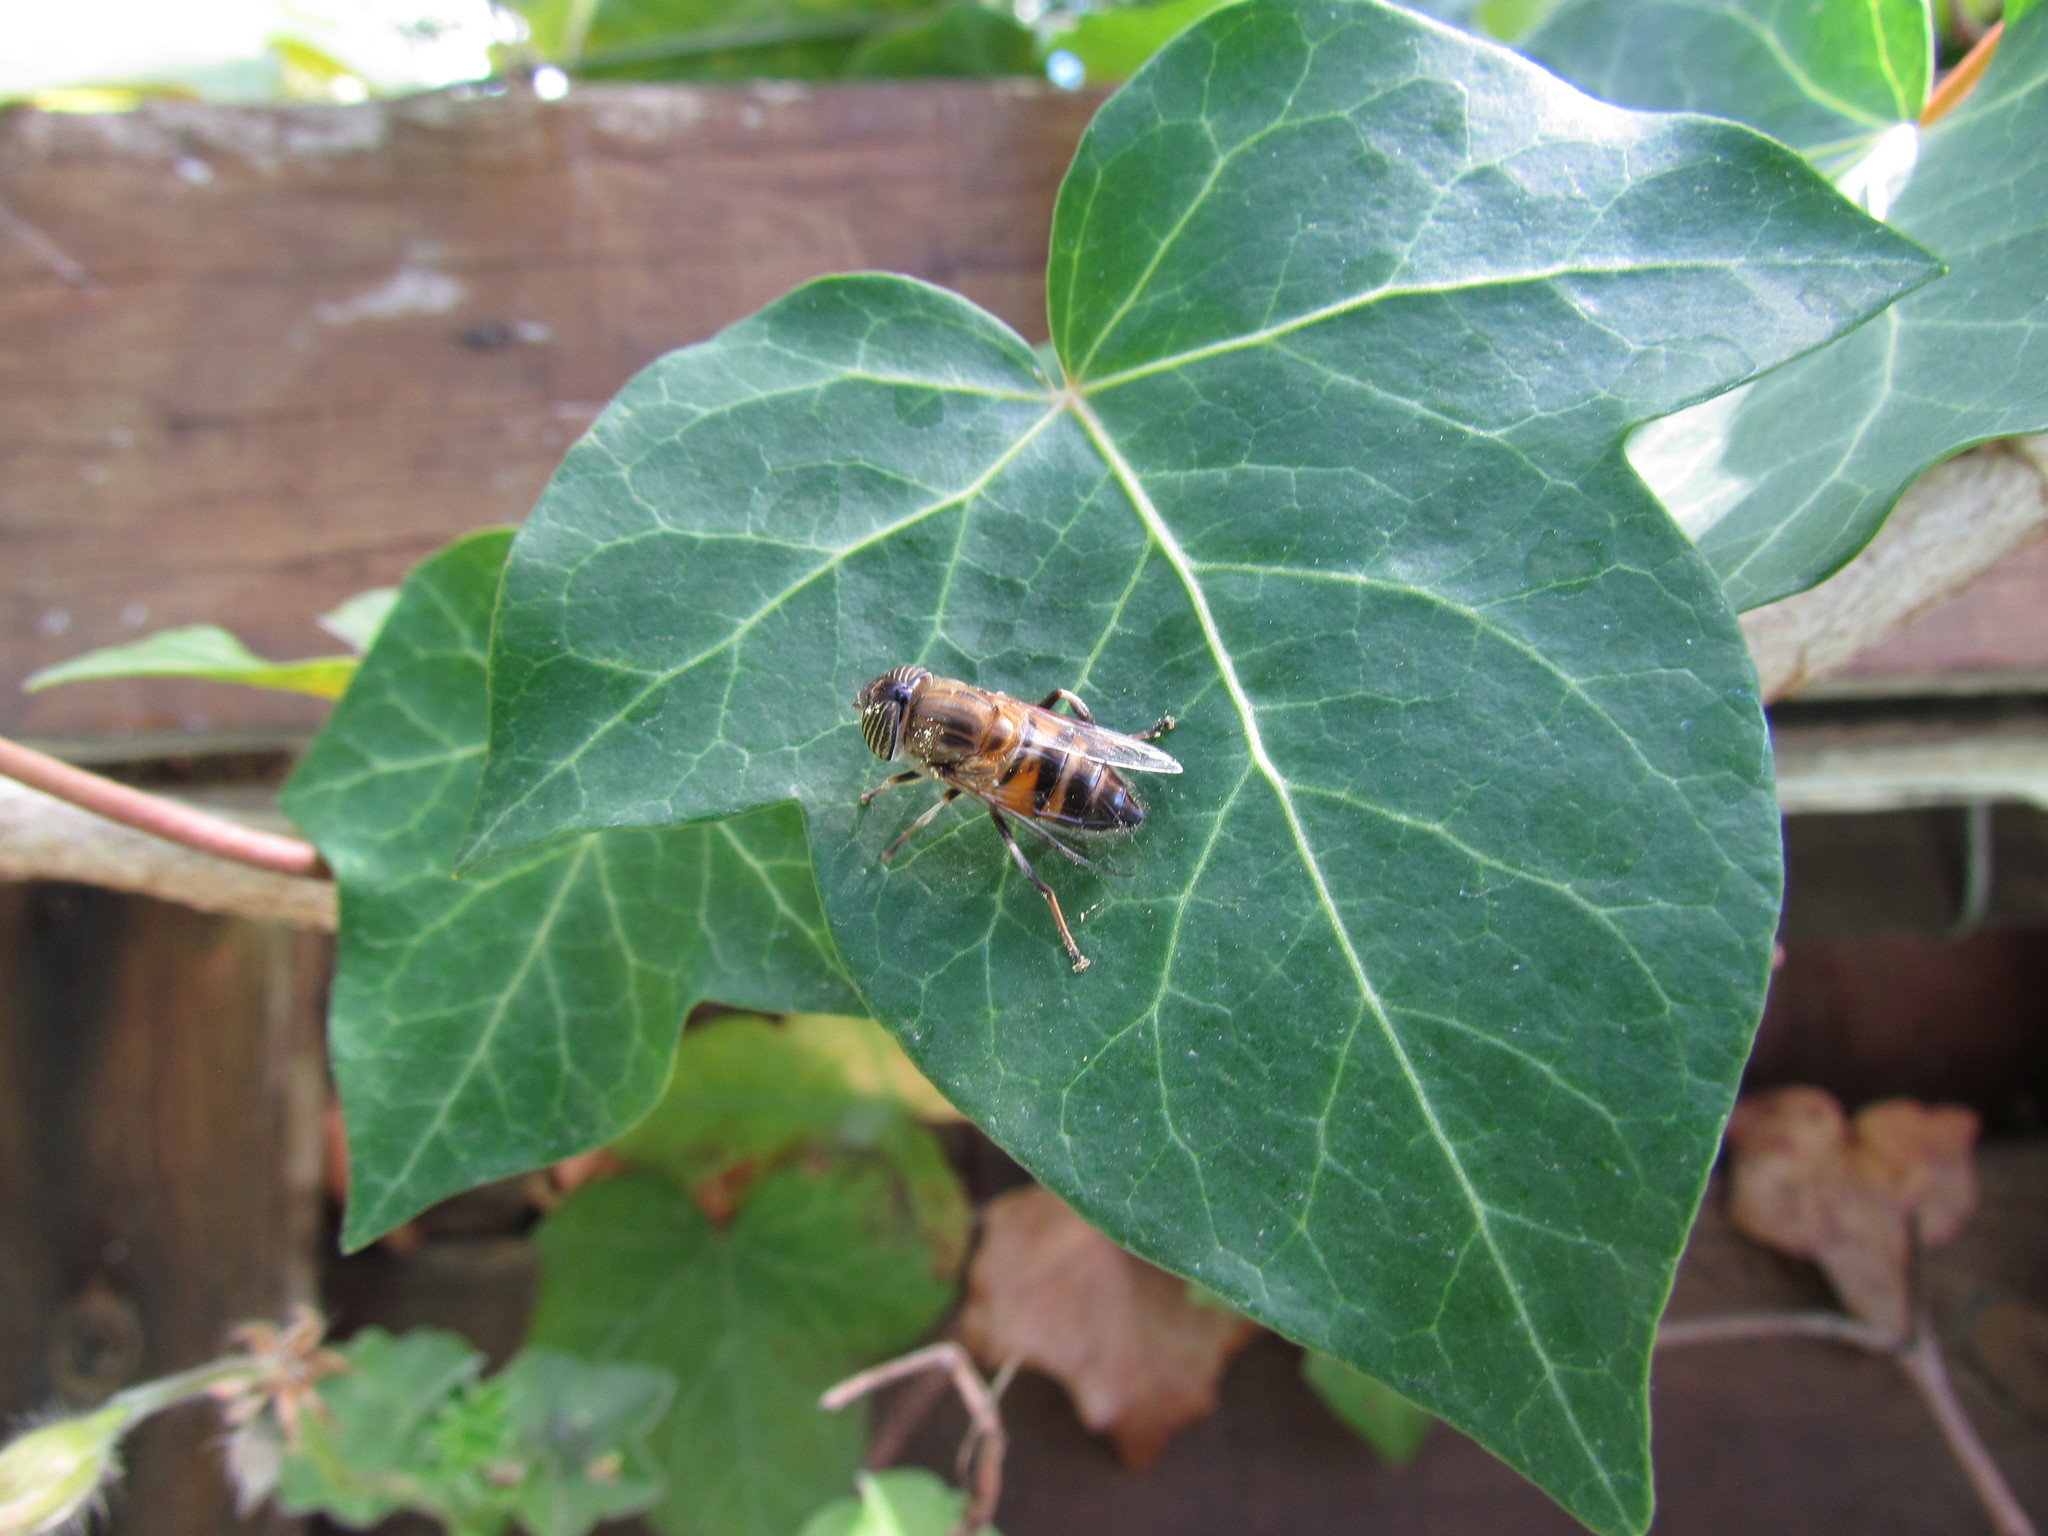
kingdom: Animalia
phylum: Arthropoda
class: Insecta
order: Diptera
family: Syrphidae
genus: Eristalinus
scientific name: Eristalinus taeniops
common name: Syrphid fly
